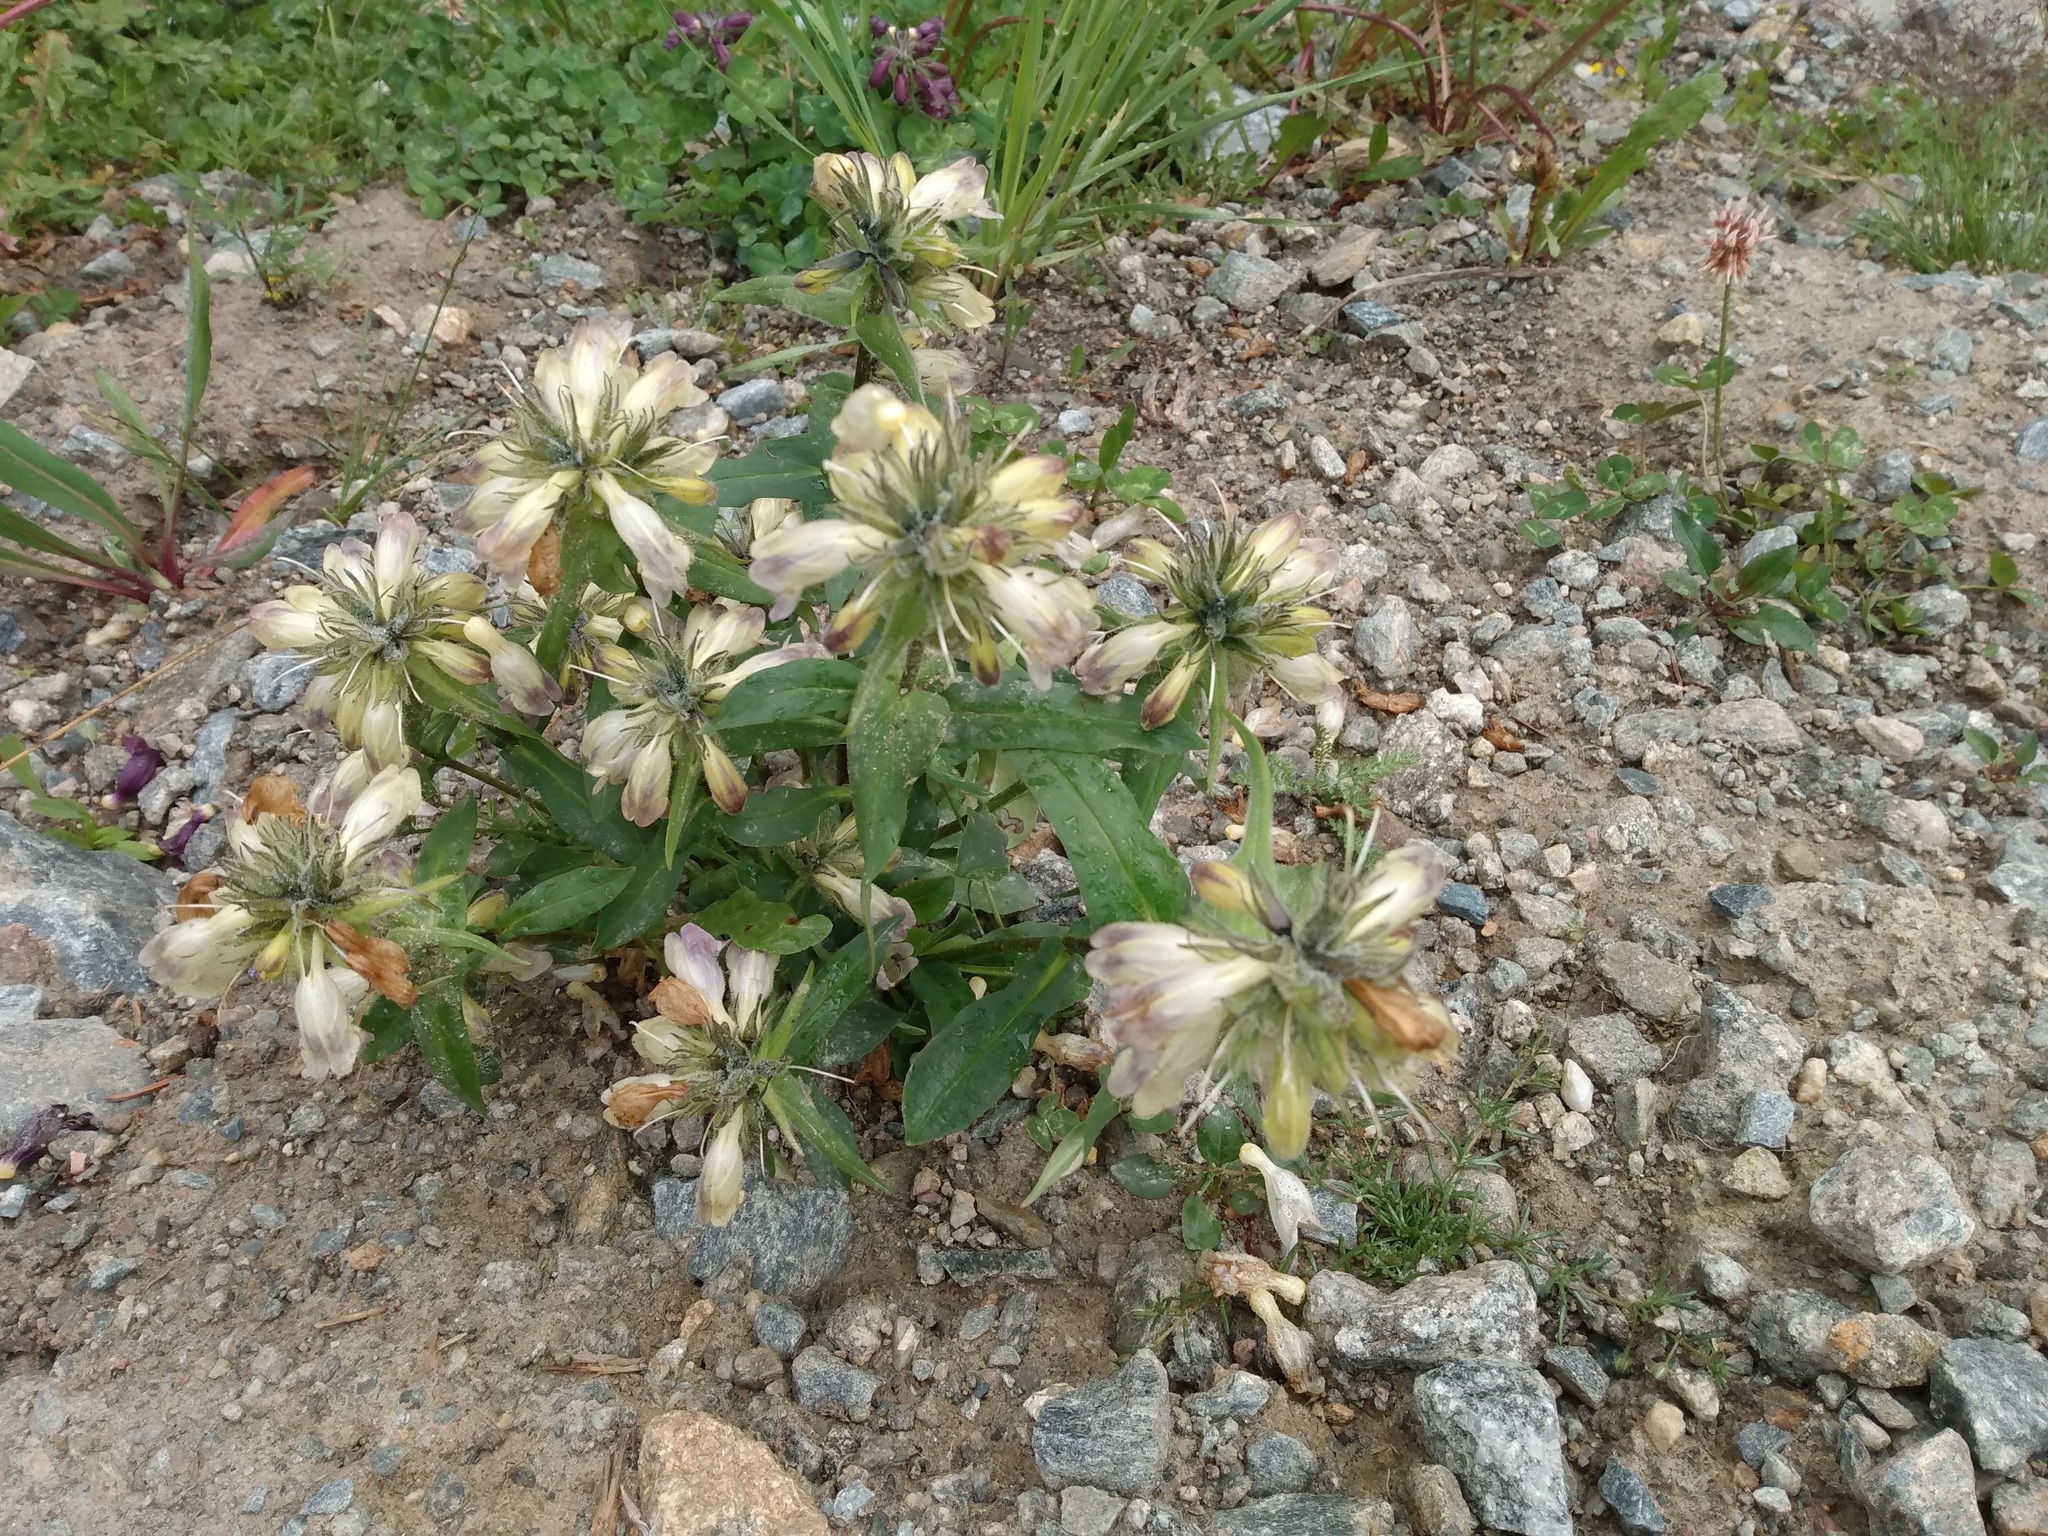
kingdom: Plantae
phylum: Tracheophyta
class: Magnoliopsida
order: Lamiales
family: Plantaginaceae
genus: Penstemon
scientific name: Penstemon whippleanus
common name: Whipple's penstemon
